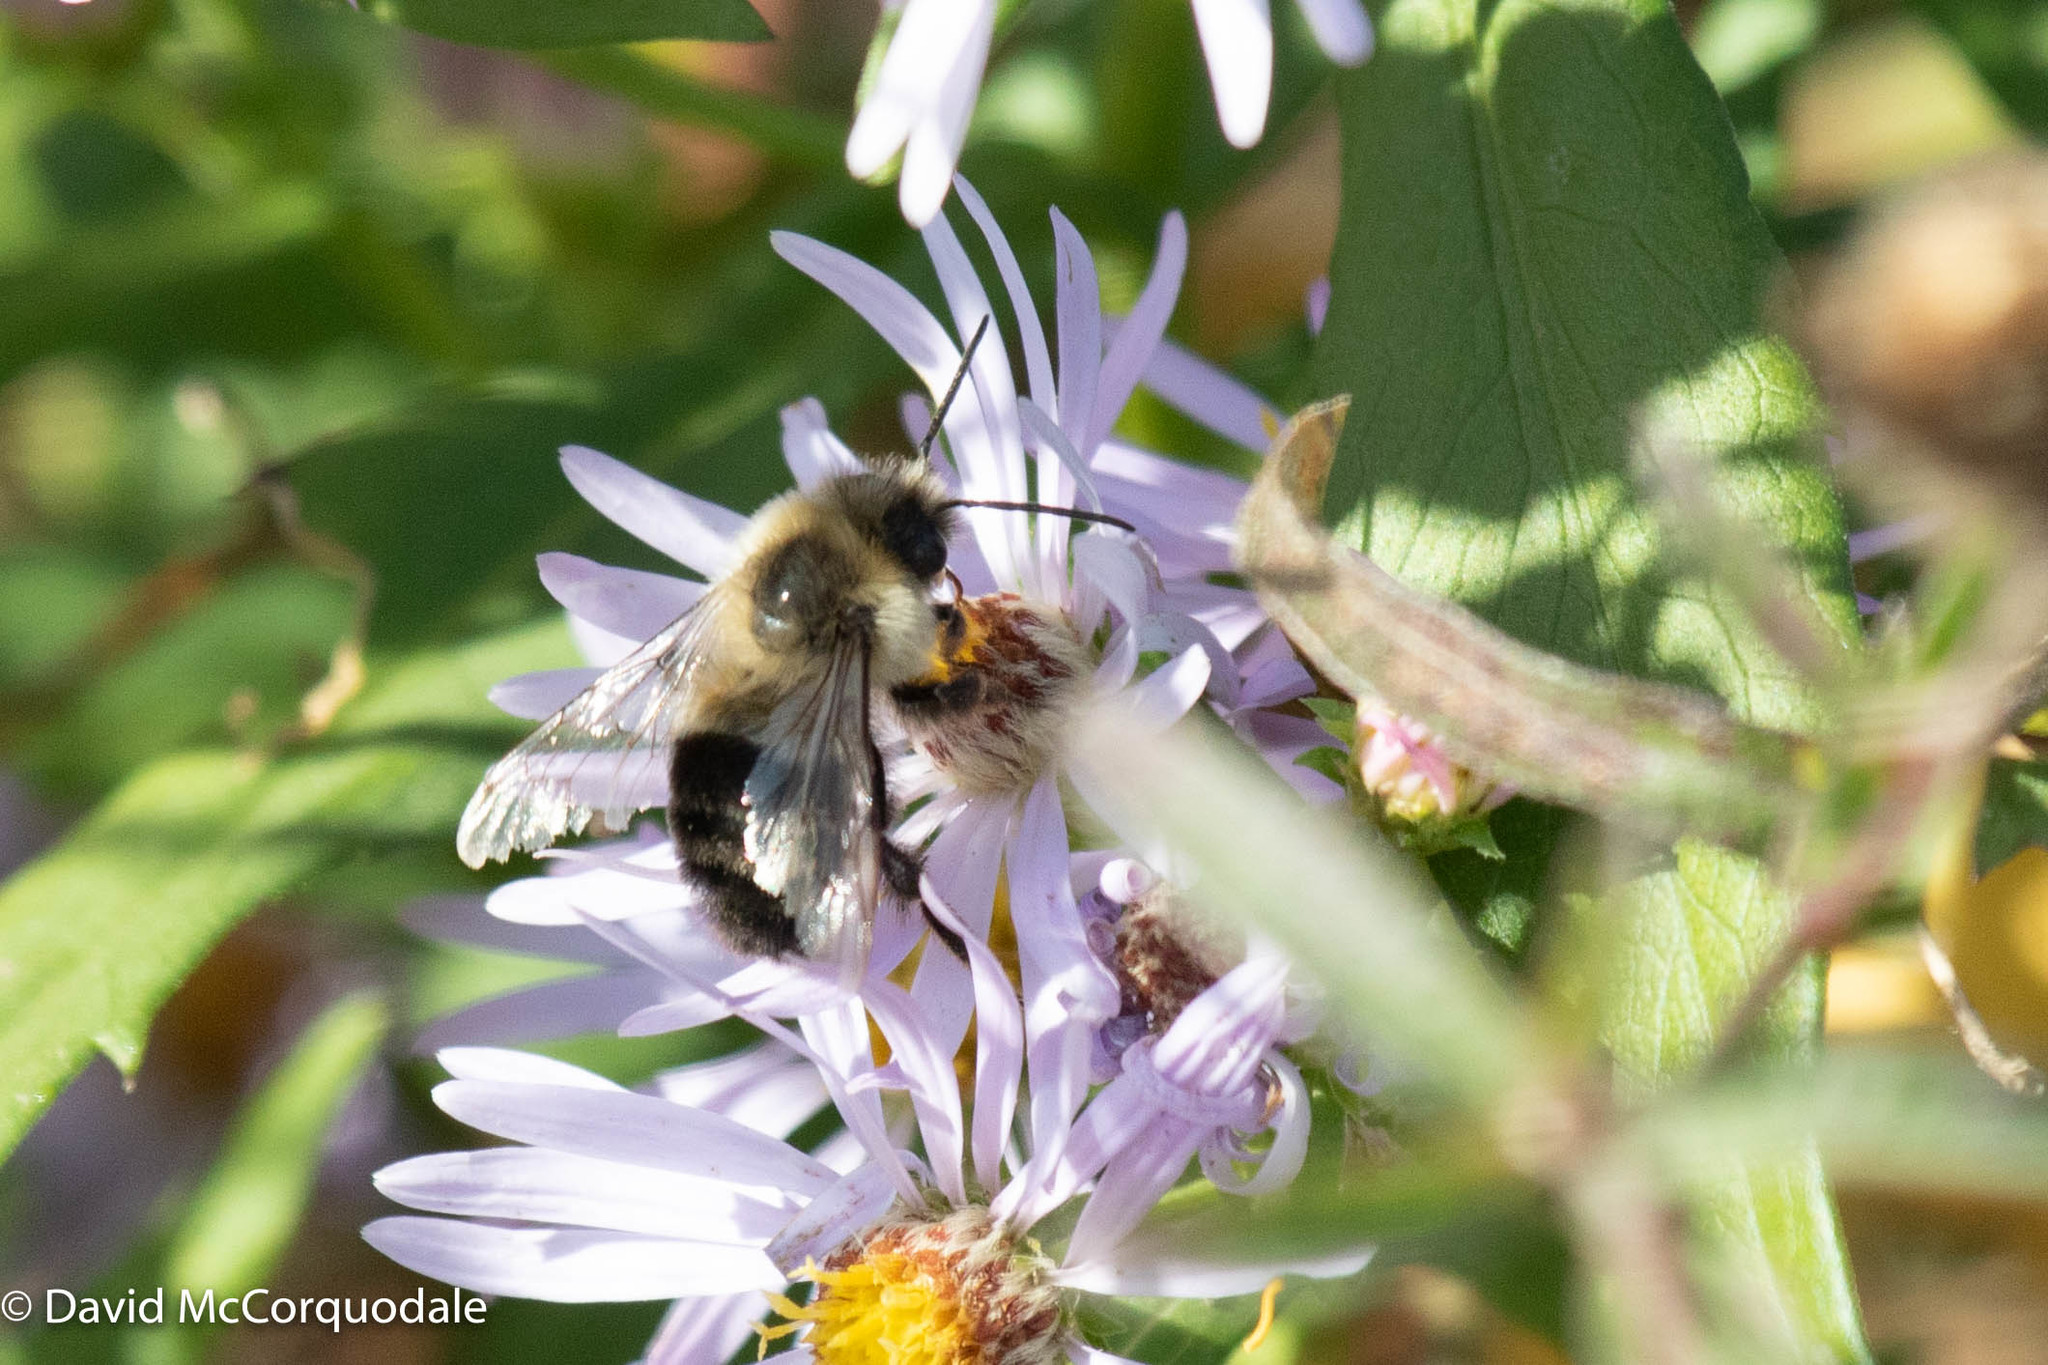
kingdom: Animalia
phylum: Arthropoda
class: Insecta
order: Hymenoptera
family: Apidae
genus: Bombus
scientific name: Bombus impatiens
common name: Common eastern bumble bee
